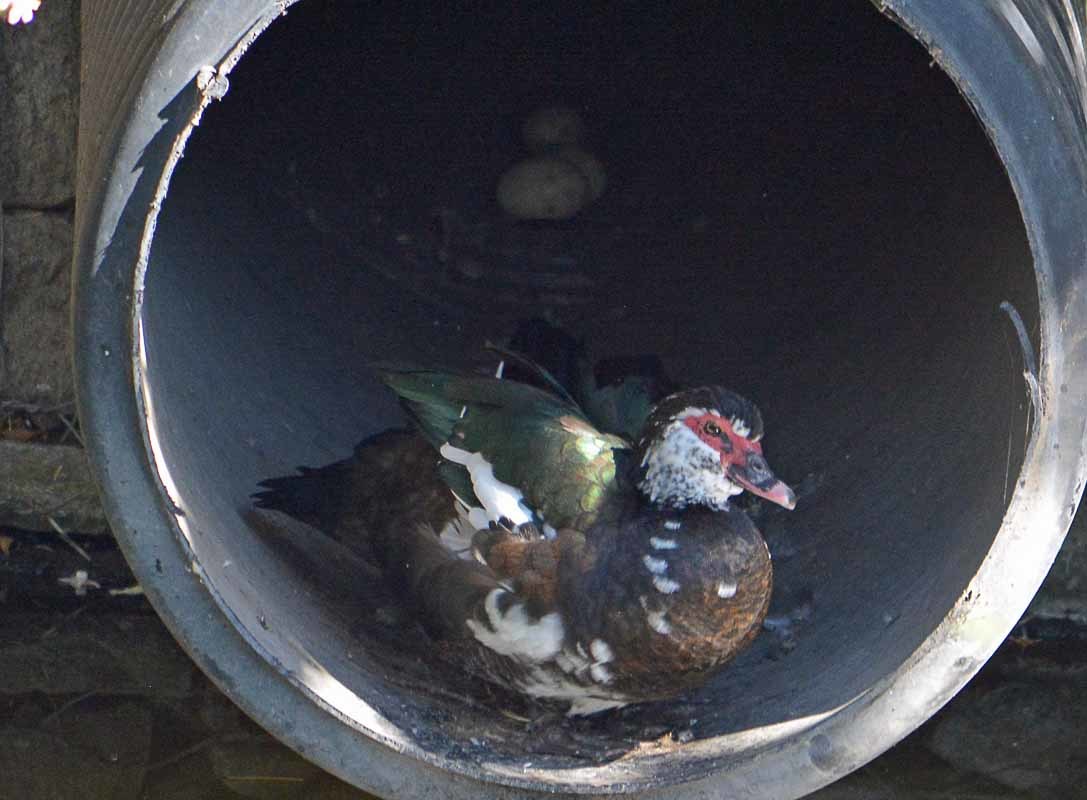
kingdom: Animalia
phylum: Chordata
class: Aves
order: Anseriformes
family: Anatidae
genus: Cairina
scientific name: Cairina moschata
